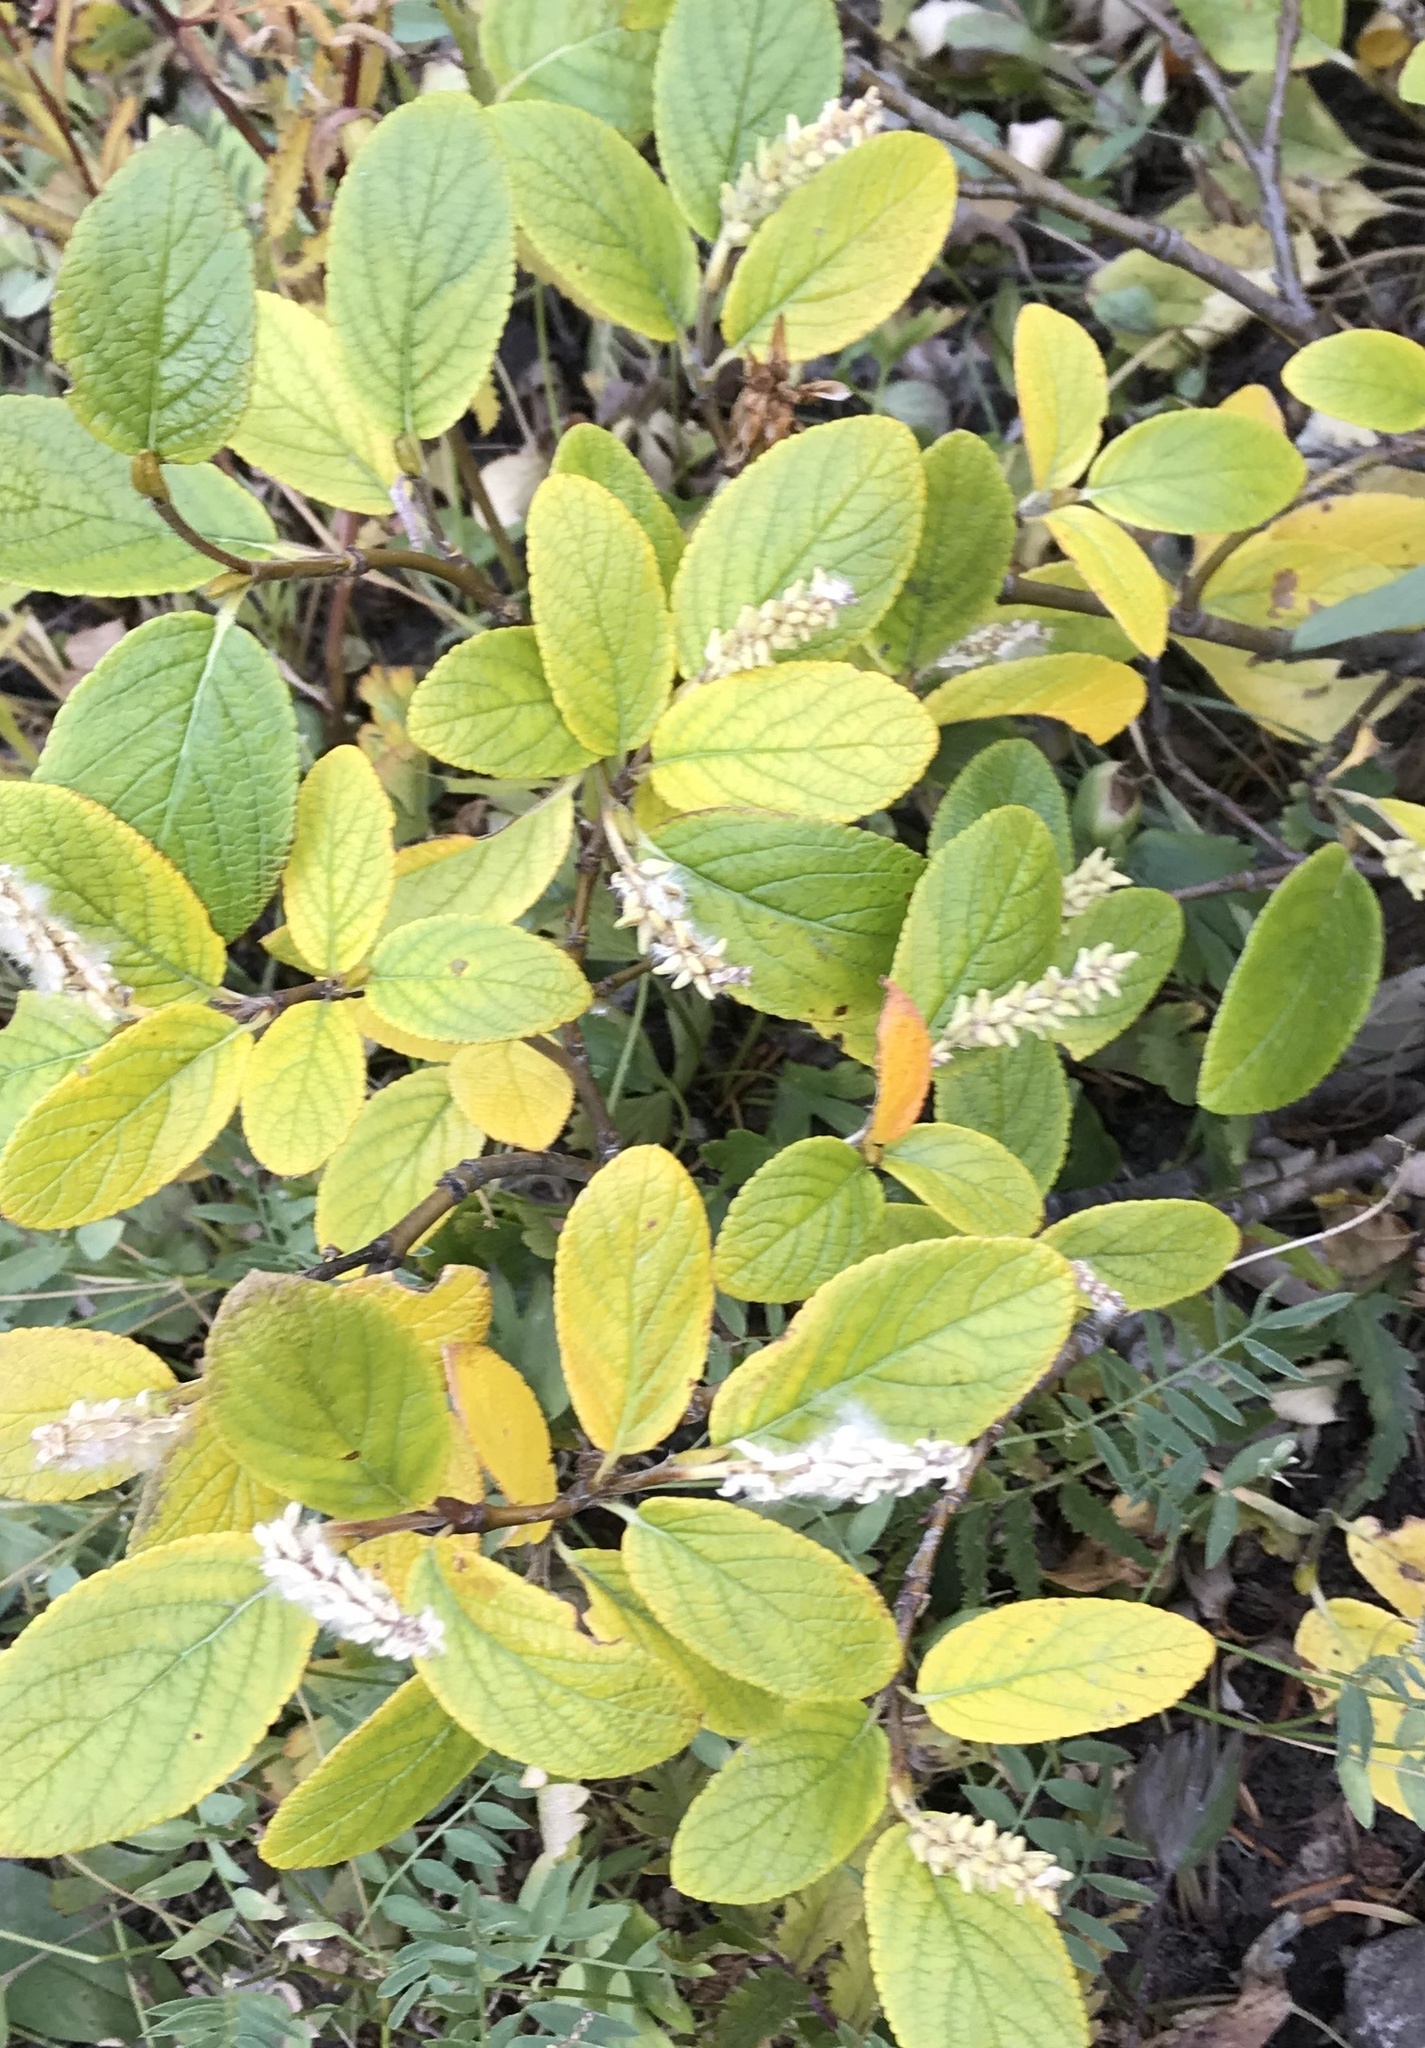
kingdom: Plantae
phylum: Tracheophyta
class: Magnoliopsida
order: Malpighiales
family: Salicaceae
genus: Salix
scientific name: Salix vestita
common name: Hairy willow
